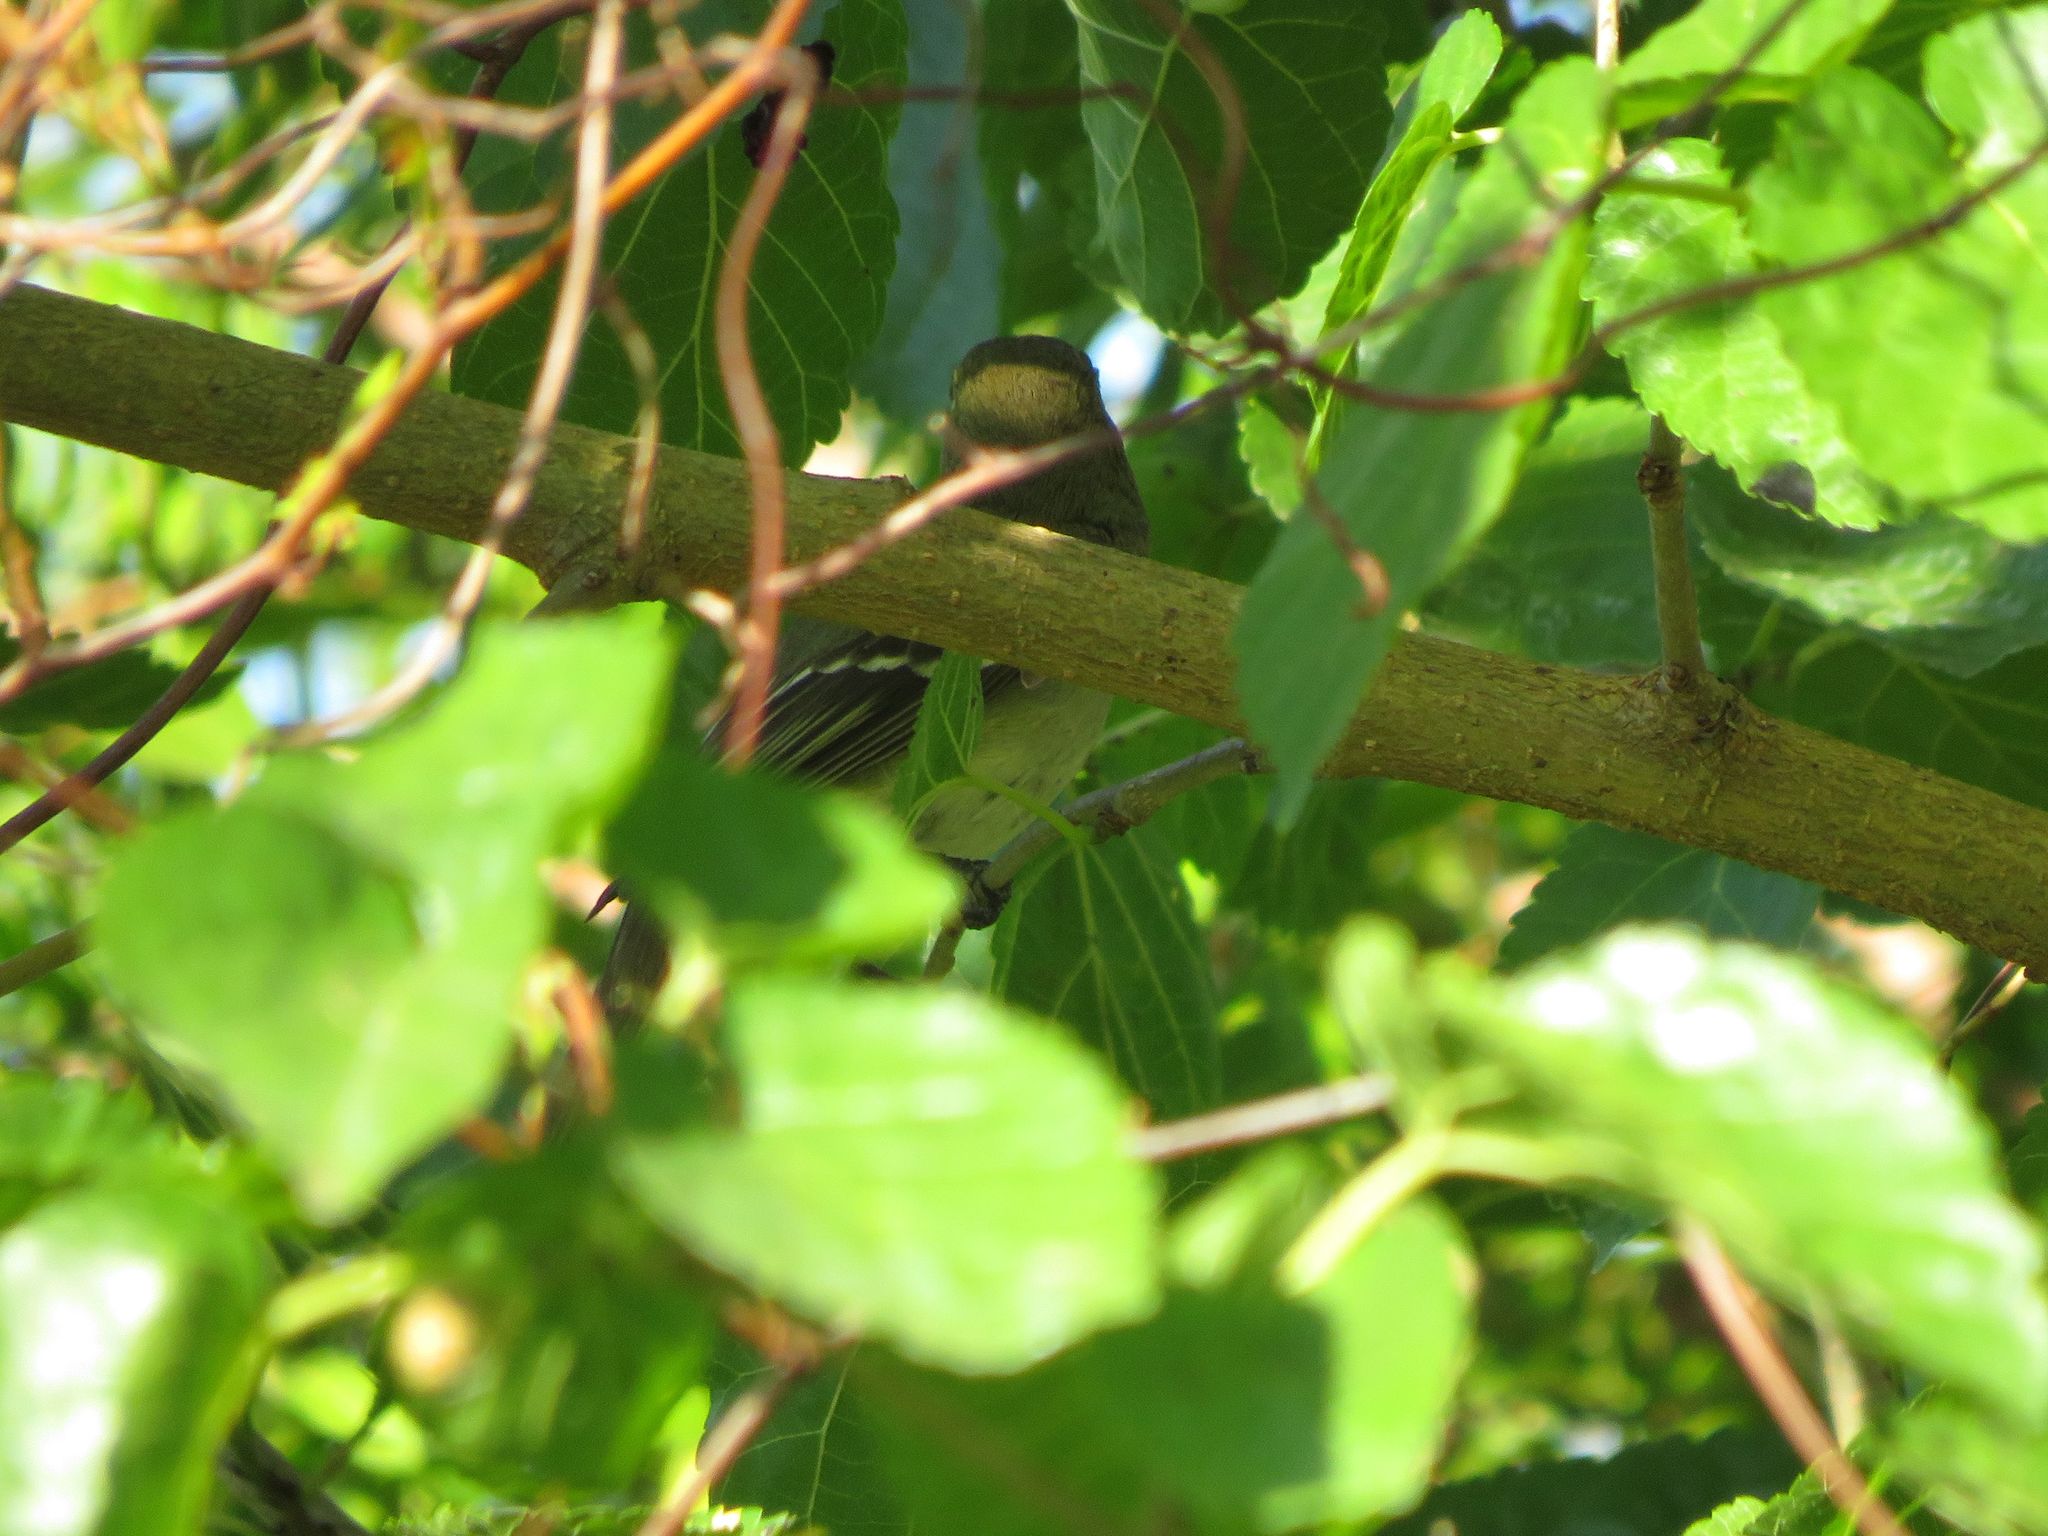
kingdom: Animalia
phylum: Chordata
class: Aves
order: Passeriformes
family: Tyrannidae
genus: Elaenia
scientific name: Elaenia parvirostris
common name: Small-billed elaenia
